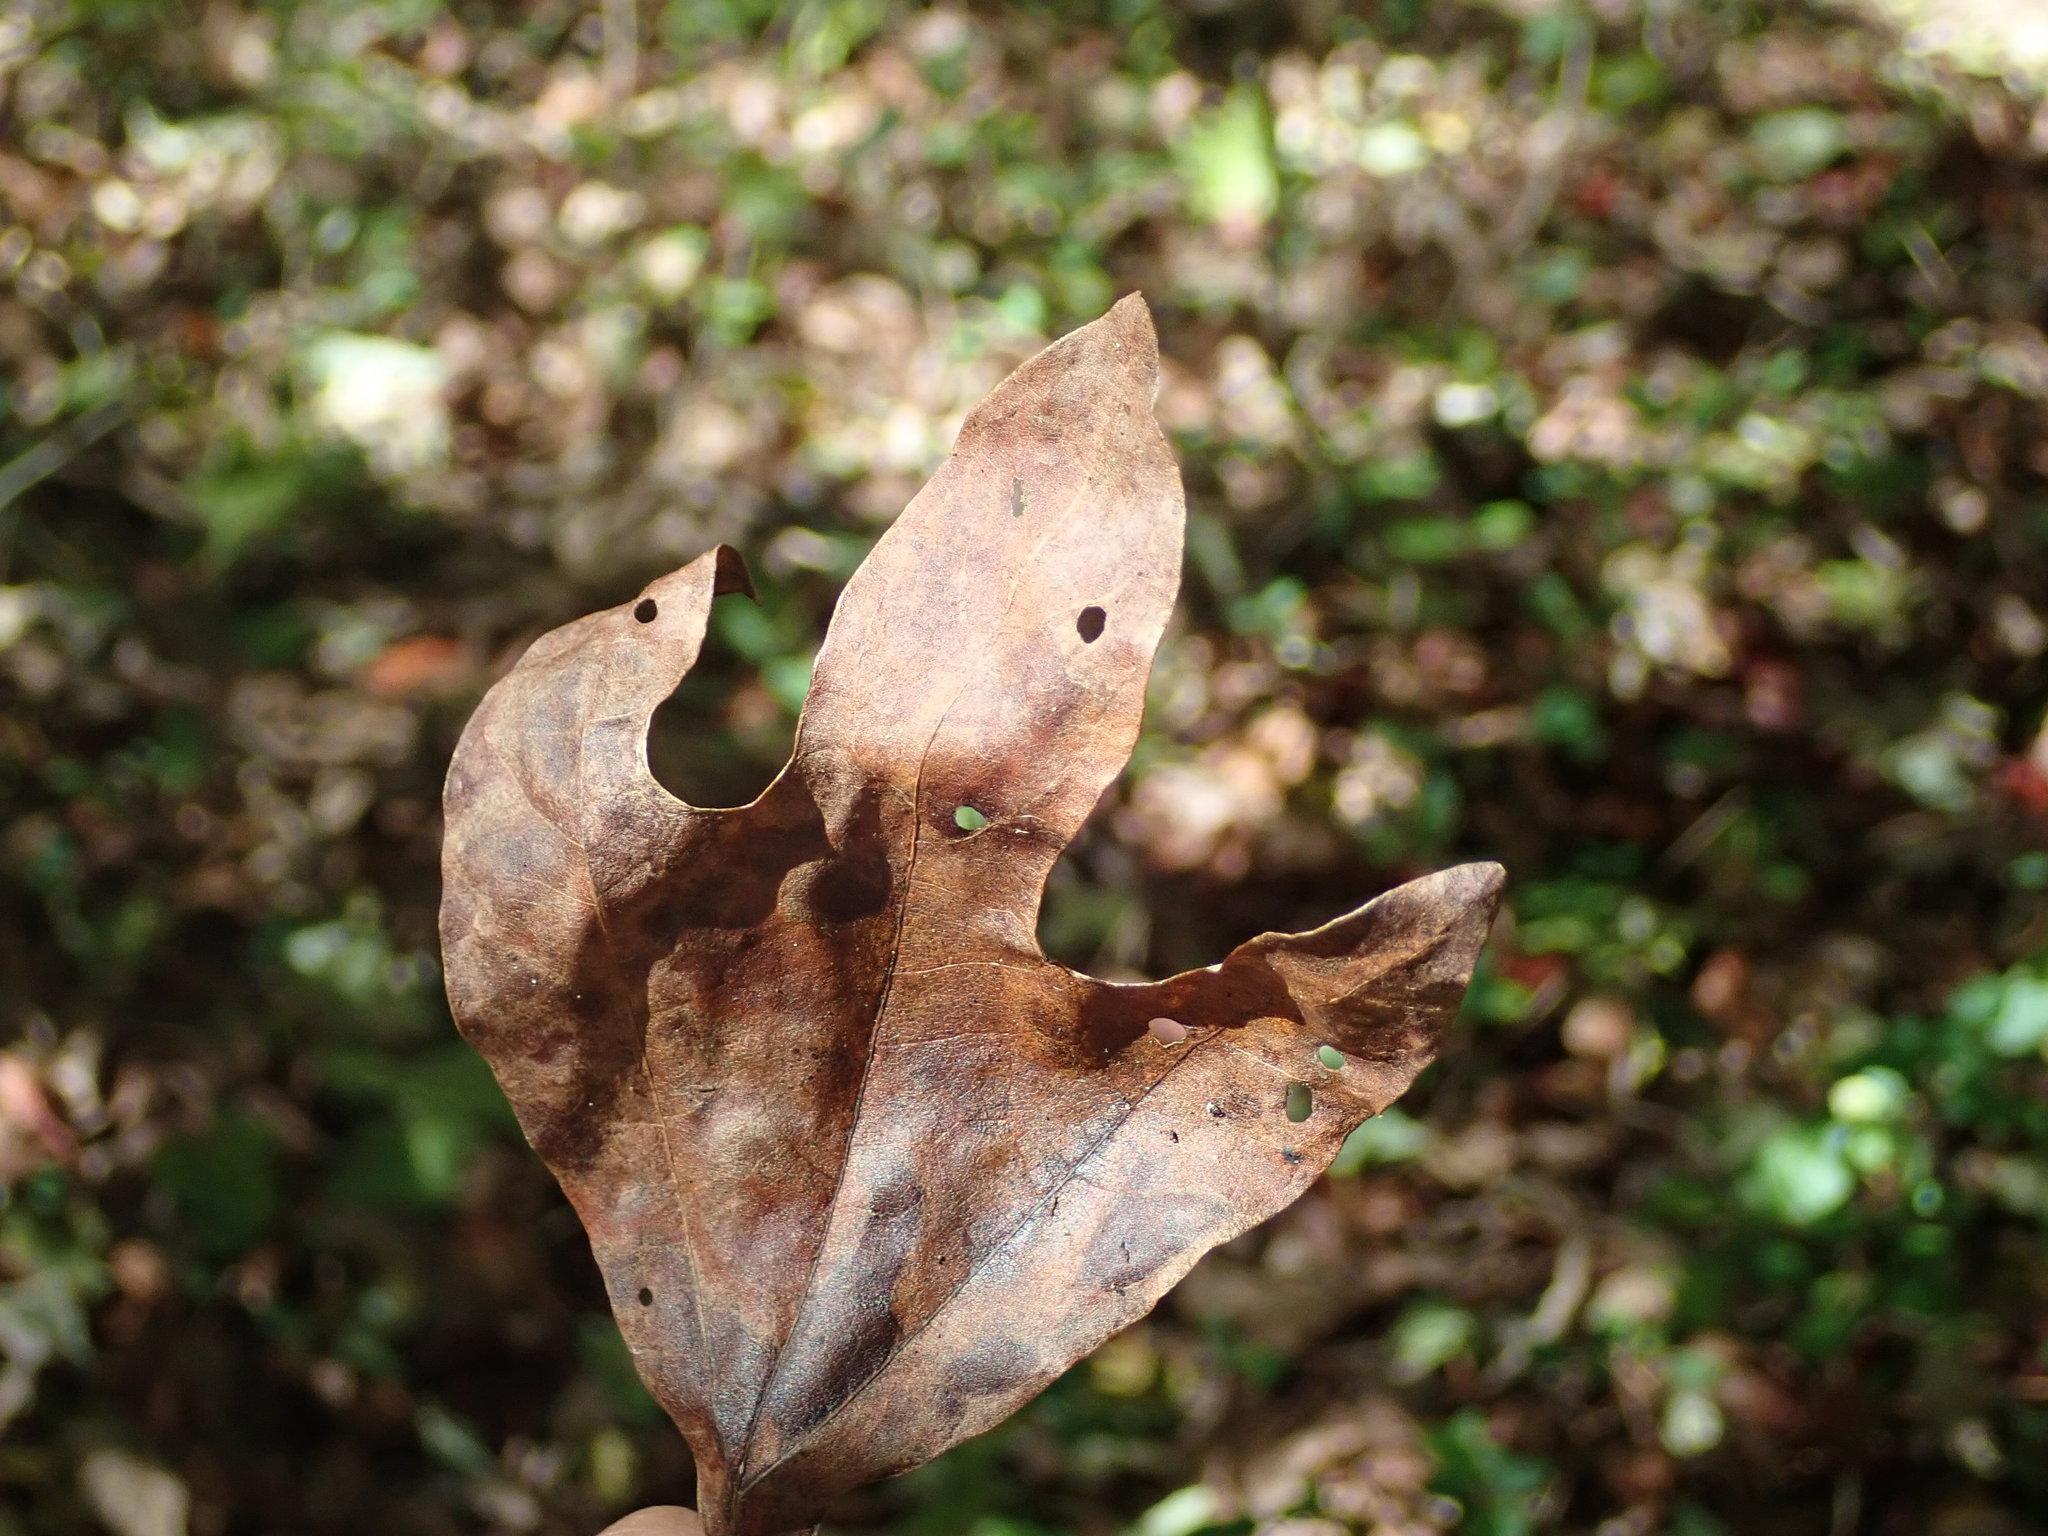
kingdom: Plantae
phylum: Tracheophyta
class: Magnoliopsida
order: Laurales
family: Lauraceae
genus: Sassafras
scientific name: Sassafras albidum
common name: Sassafras
